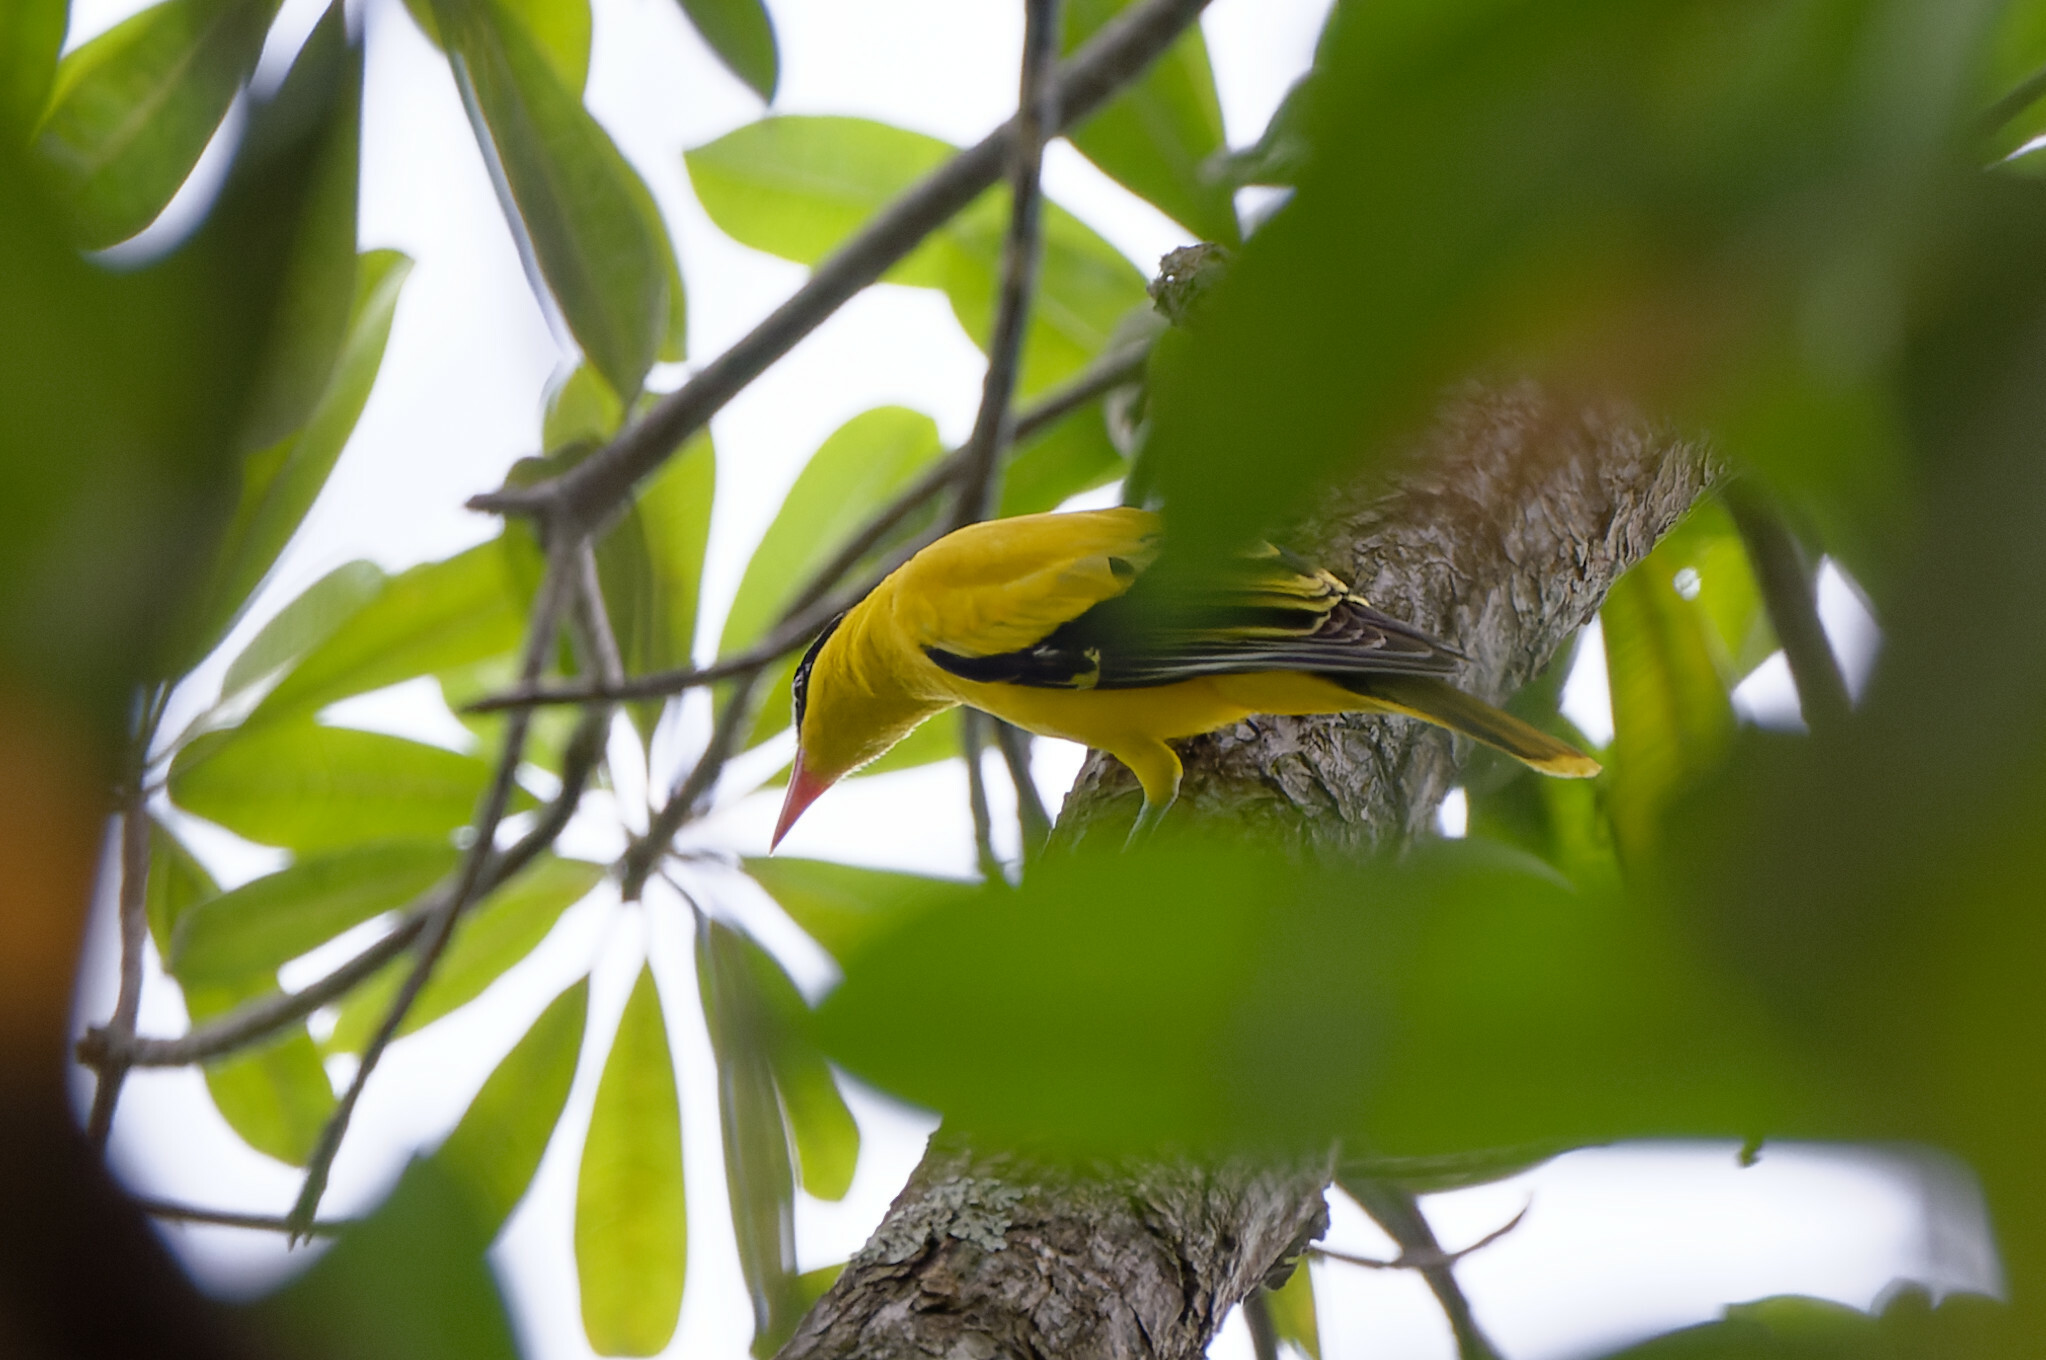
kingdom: Animalia
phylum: Chordata
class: Aves
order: Passeriformes
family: Oriolidae
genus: Oriolus
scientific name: Oriolus chinensis
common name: Black-naped oriole
